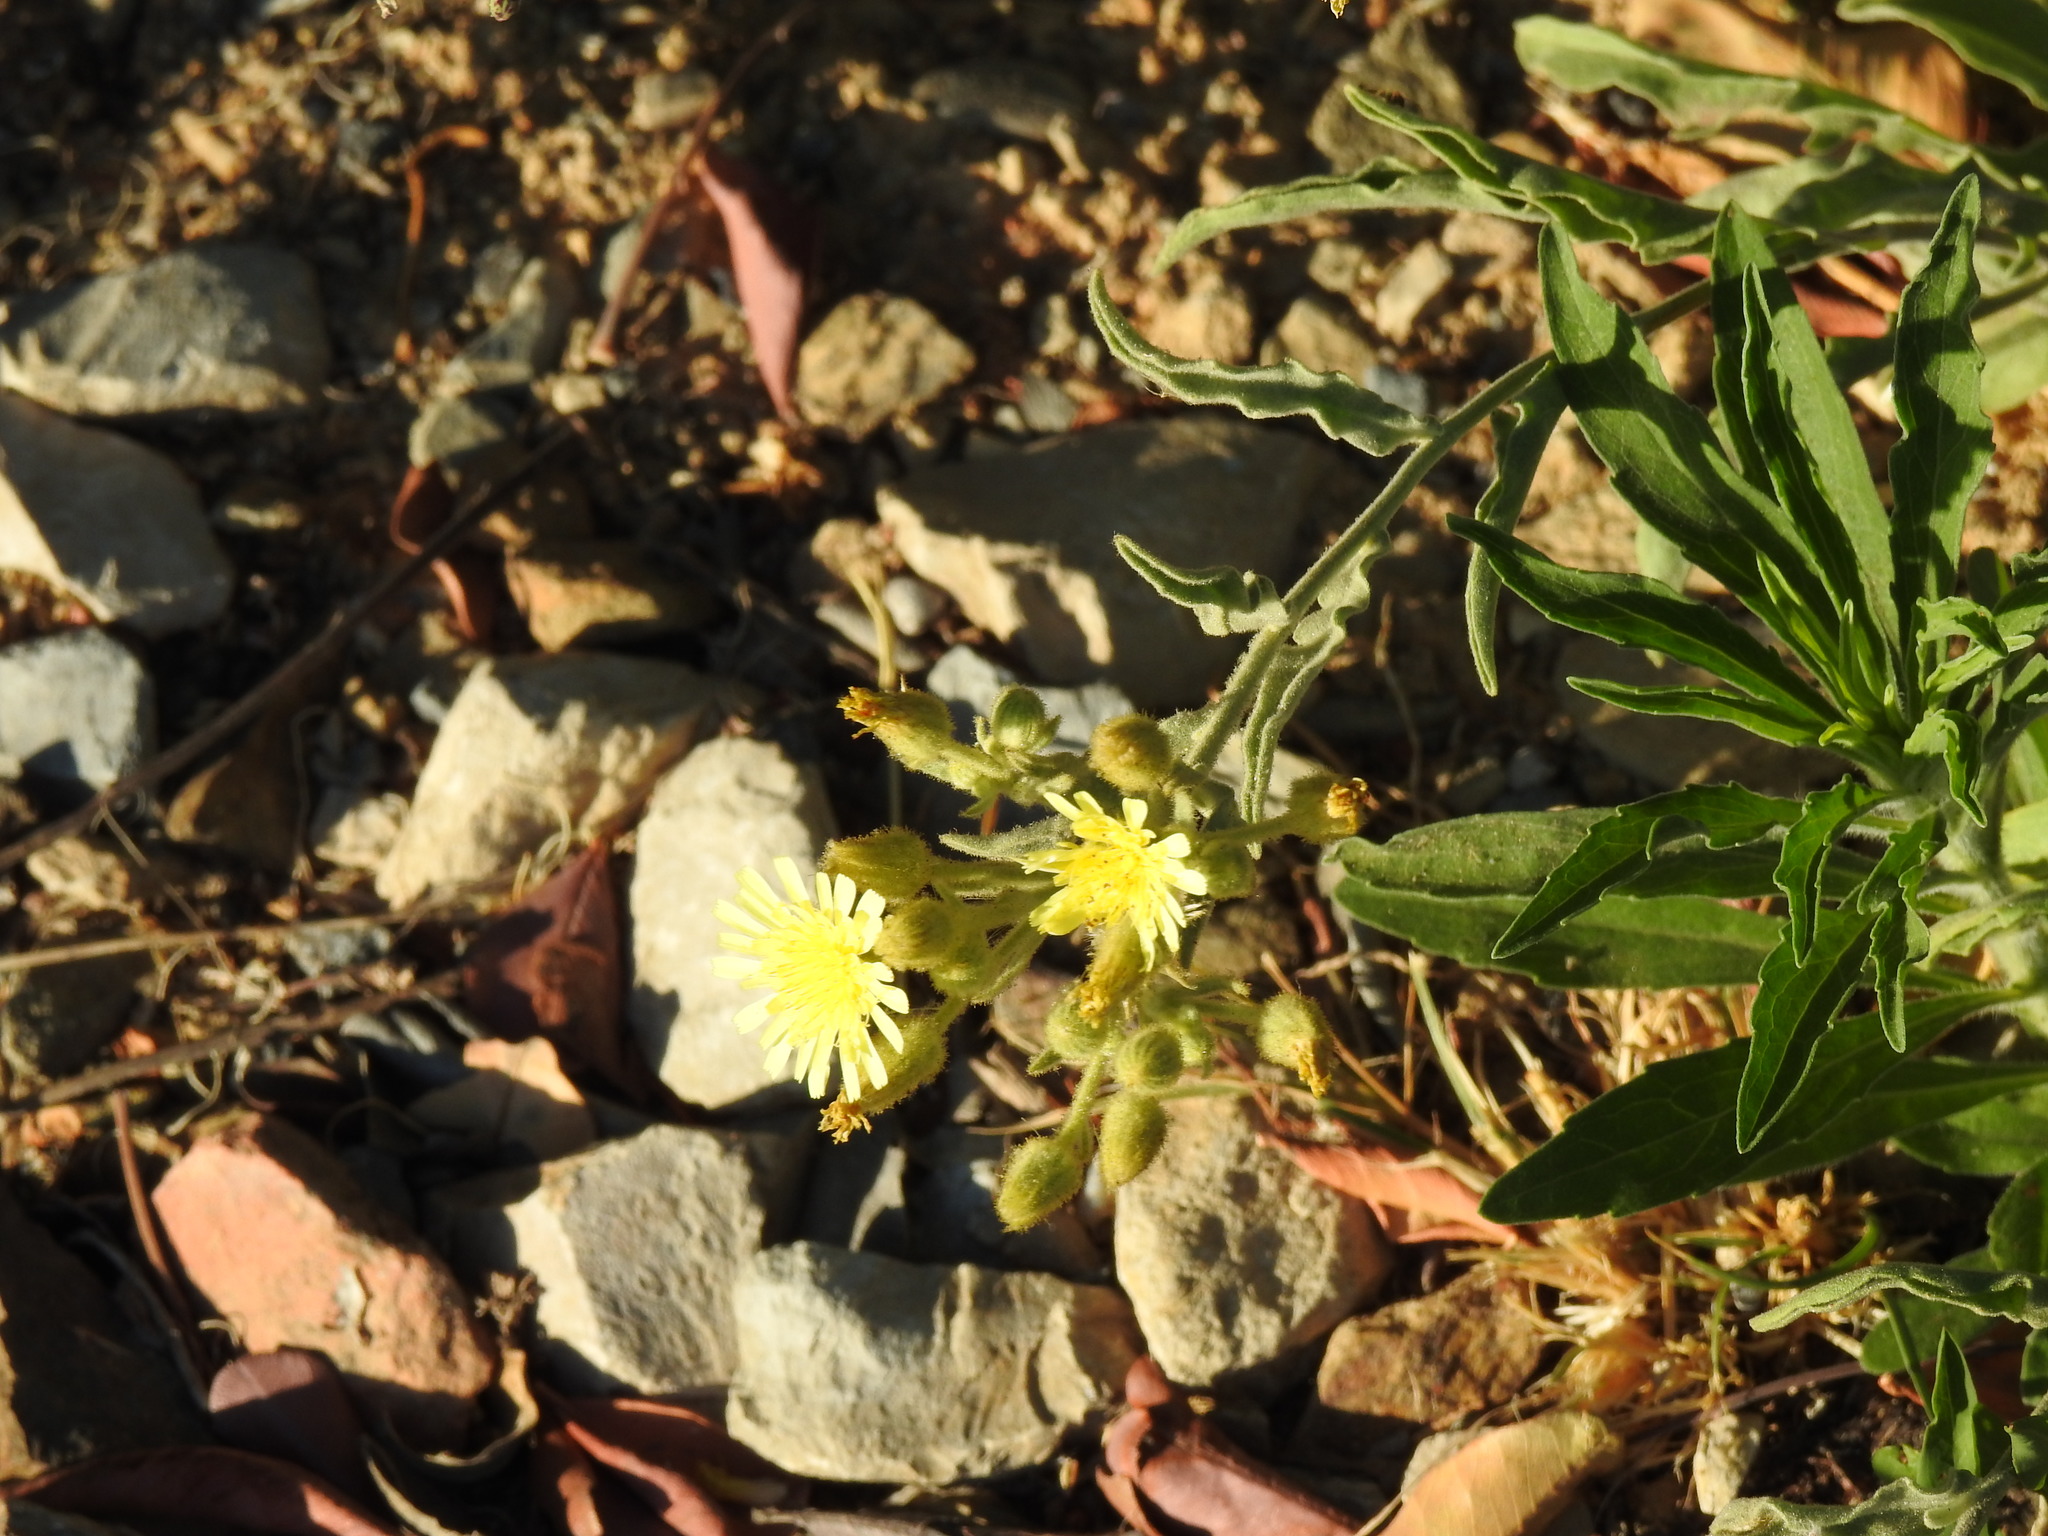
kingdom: Plantae
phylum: Tracheophyta
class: Magnoliopsida
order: Asterales
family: Asteraceae
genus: Andryala
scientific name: Andryala integrifolia
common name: Common andryala
